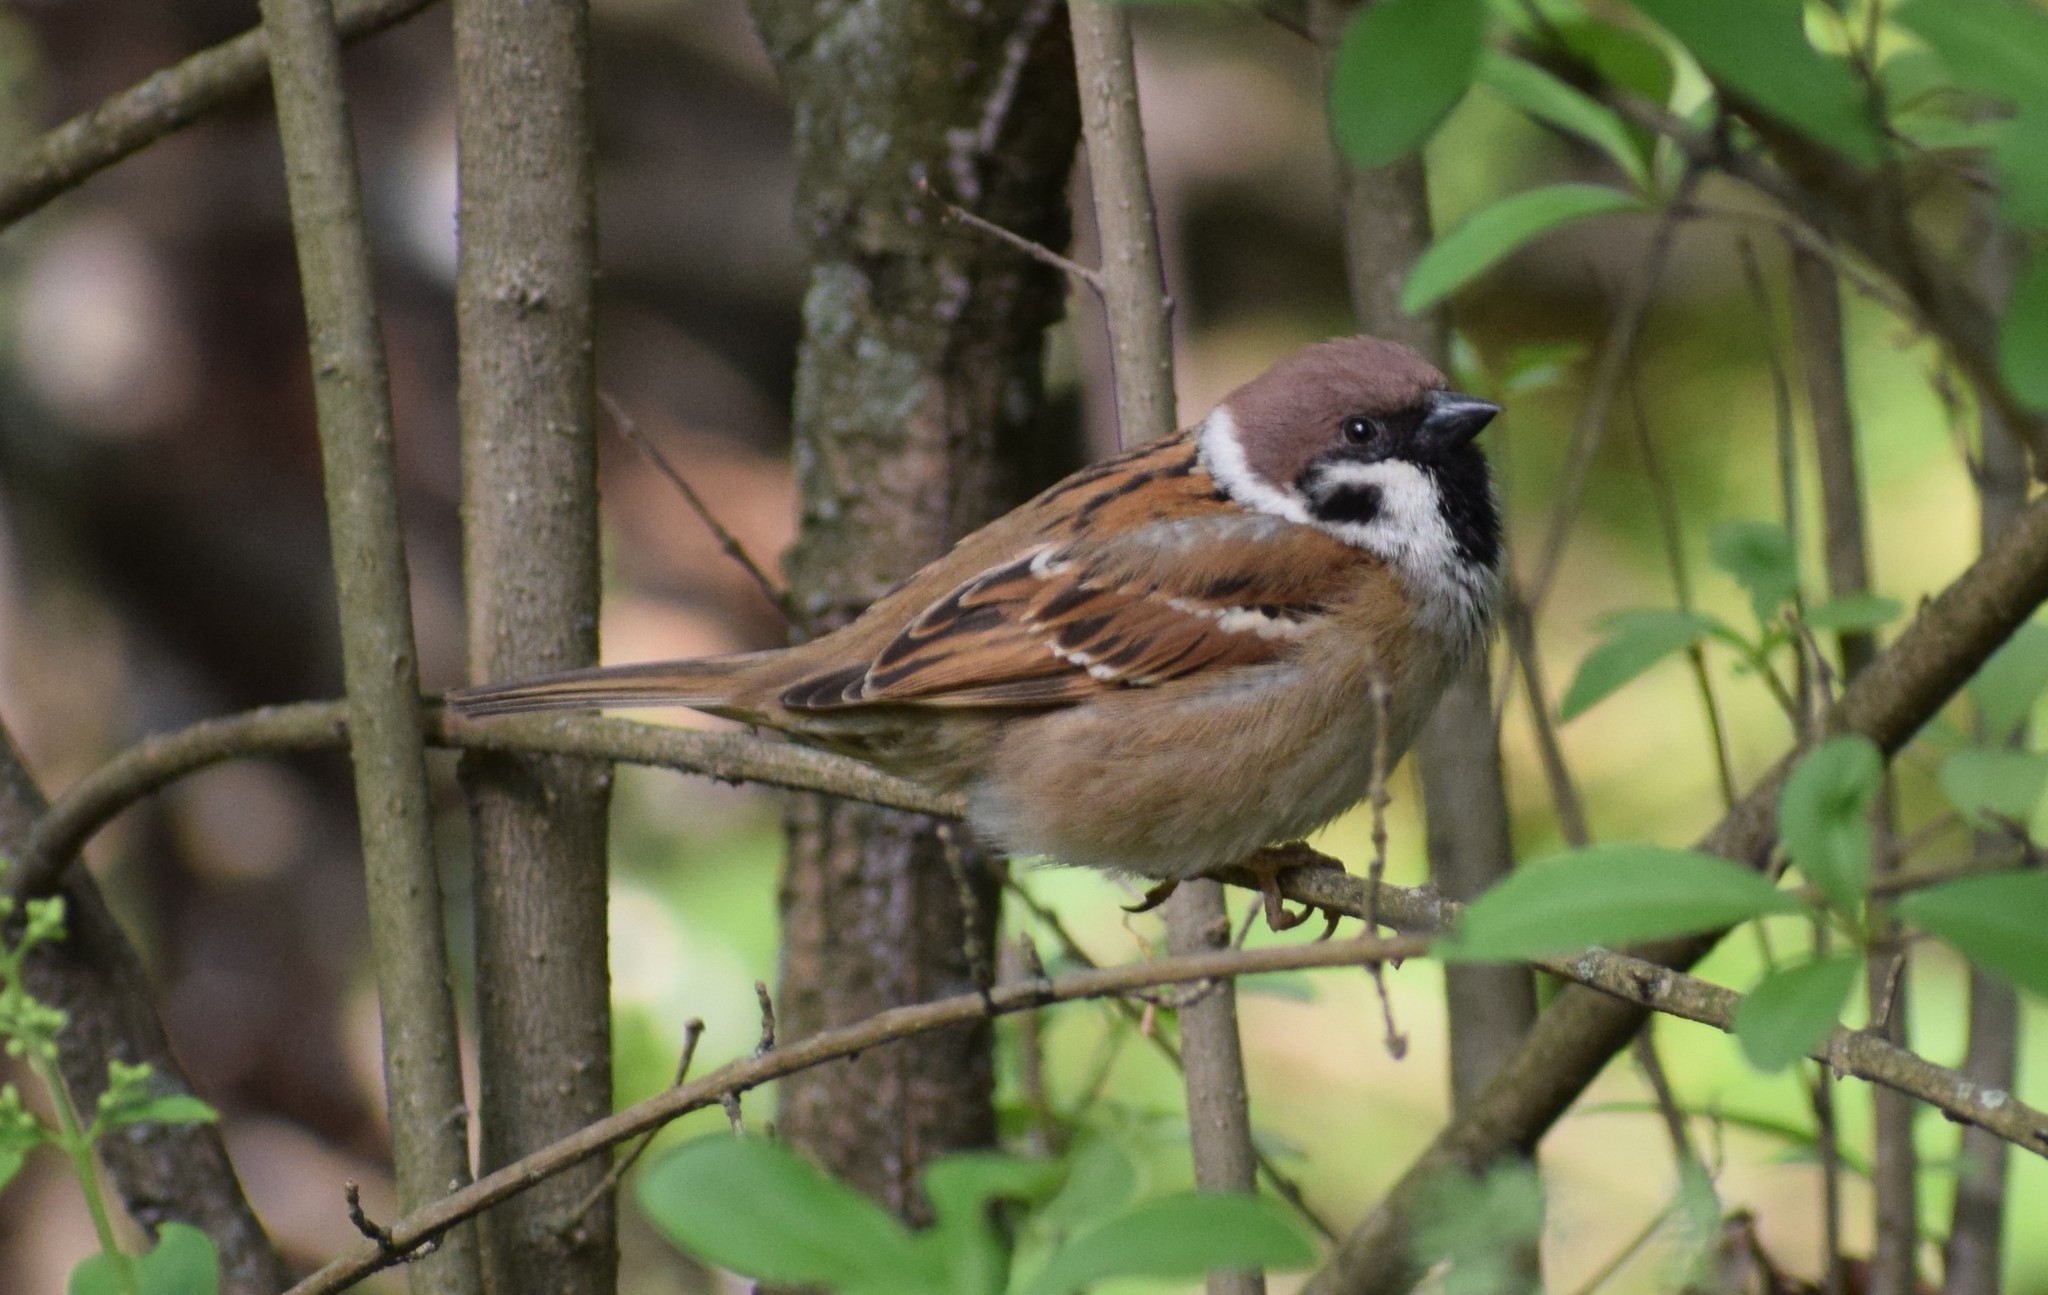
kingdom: Animalia
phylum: Chordata
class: Aves
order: Passeriformes
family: Passeridae
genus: Passer
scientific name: Passer montanus
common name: Eurasian tree sparrow
